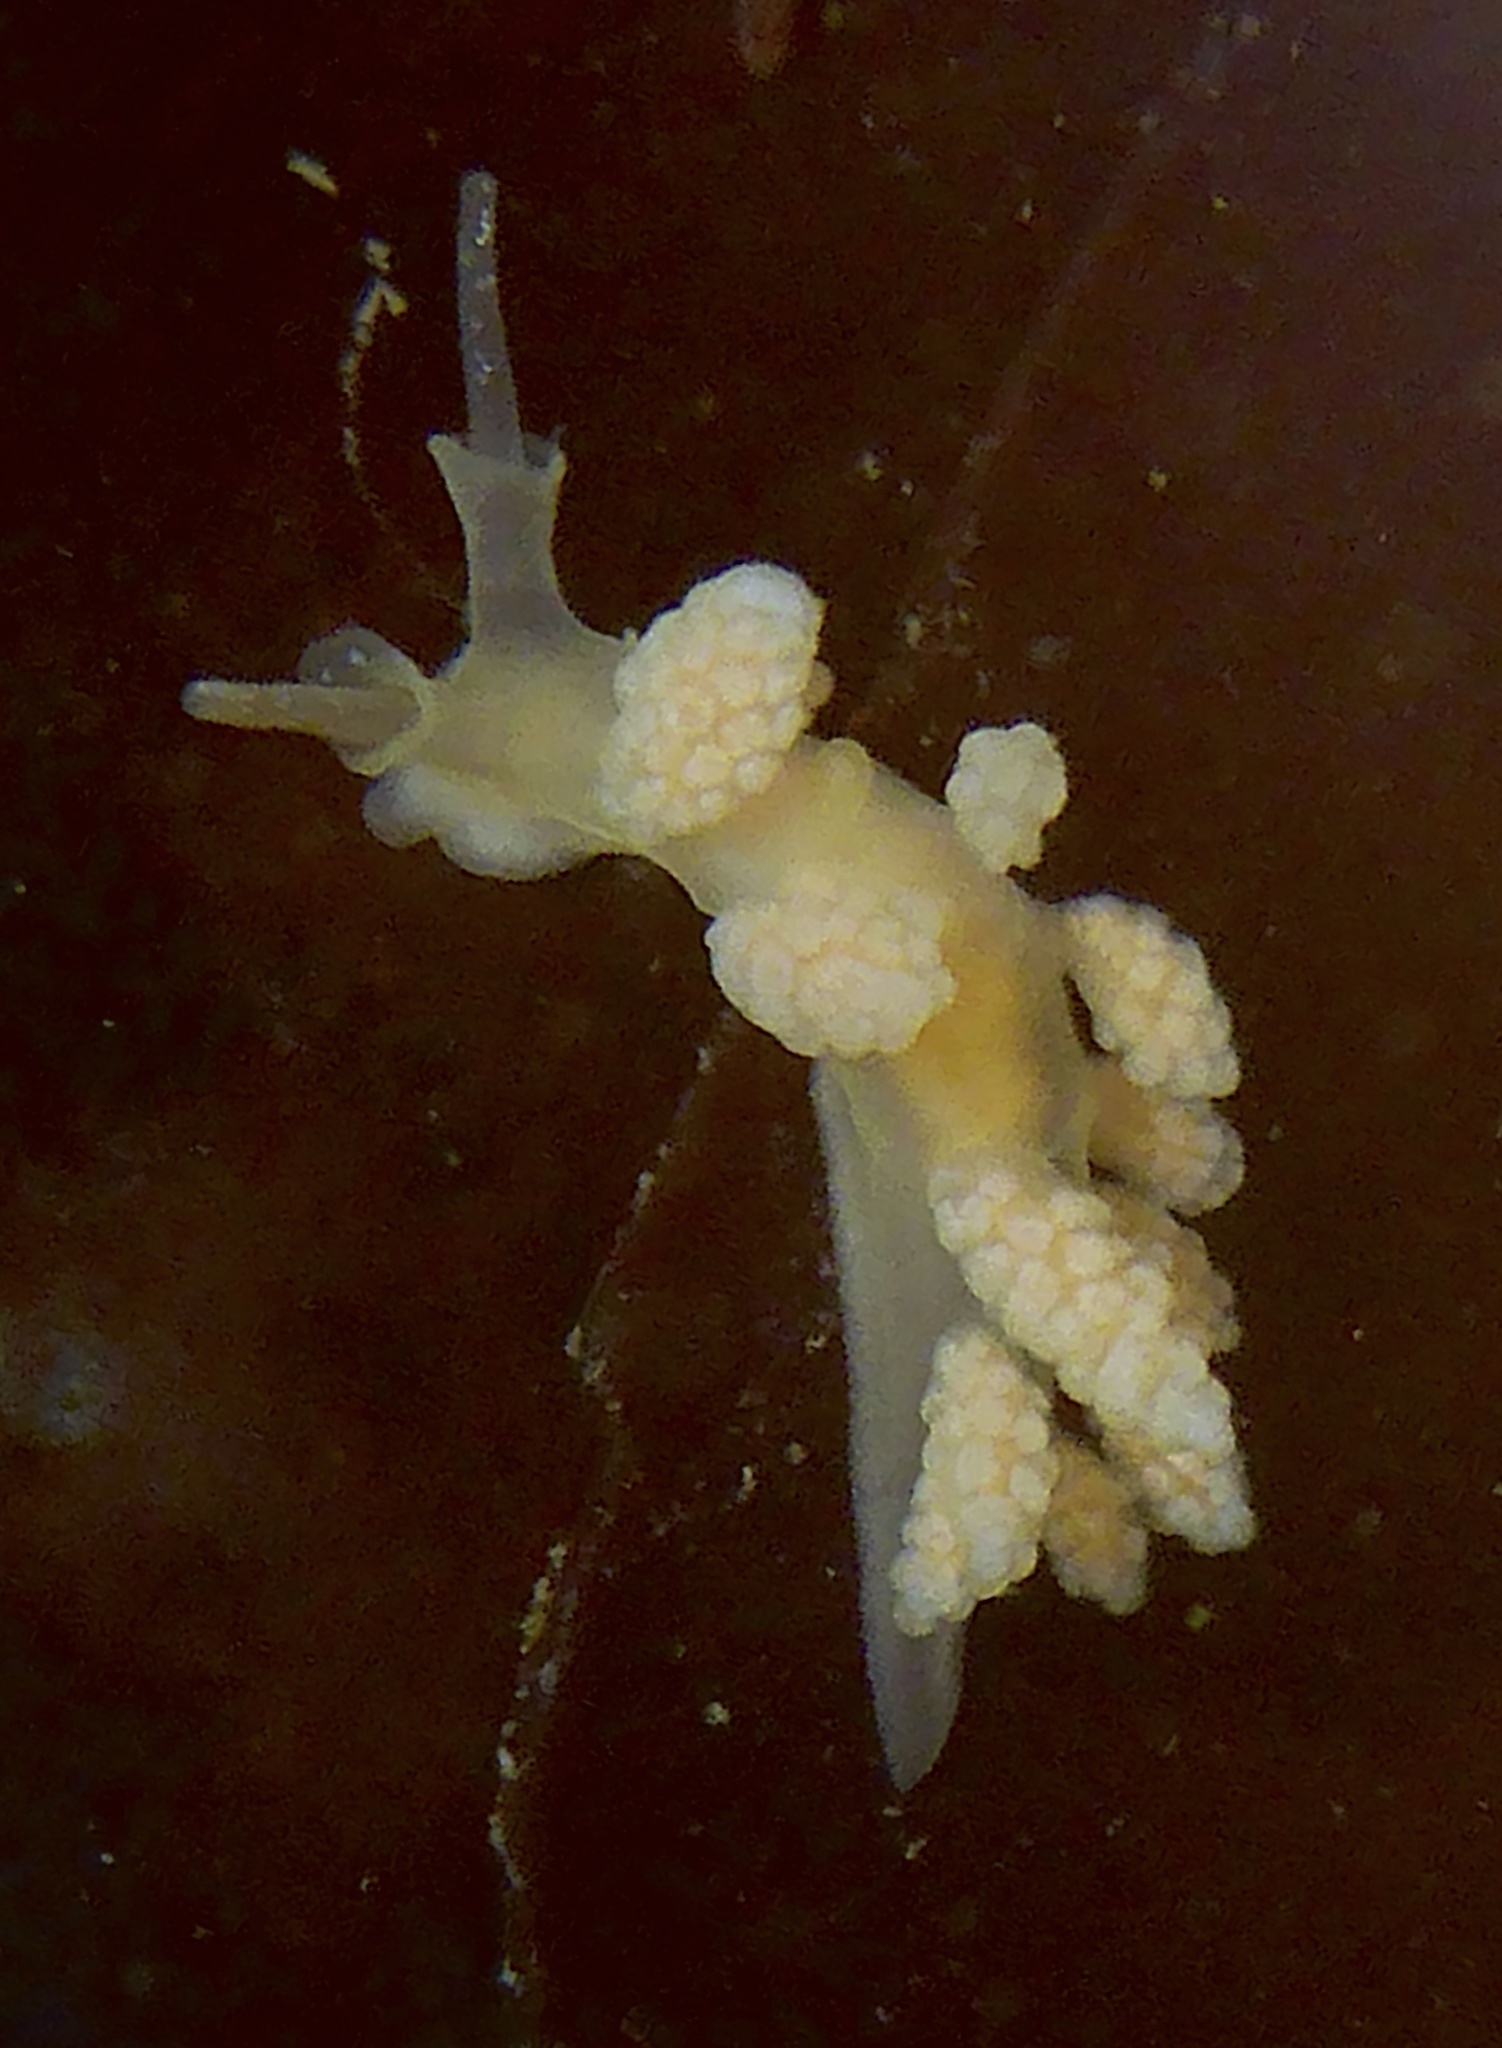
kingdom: Animalia
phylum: Mollusca
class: Gastropoda
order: Nudibranchia
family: Dotidae
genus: Doto
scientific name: Doto amyra
